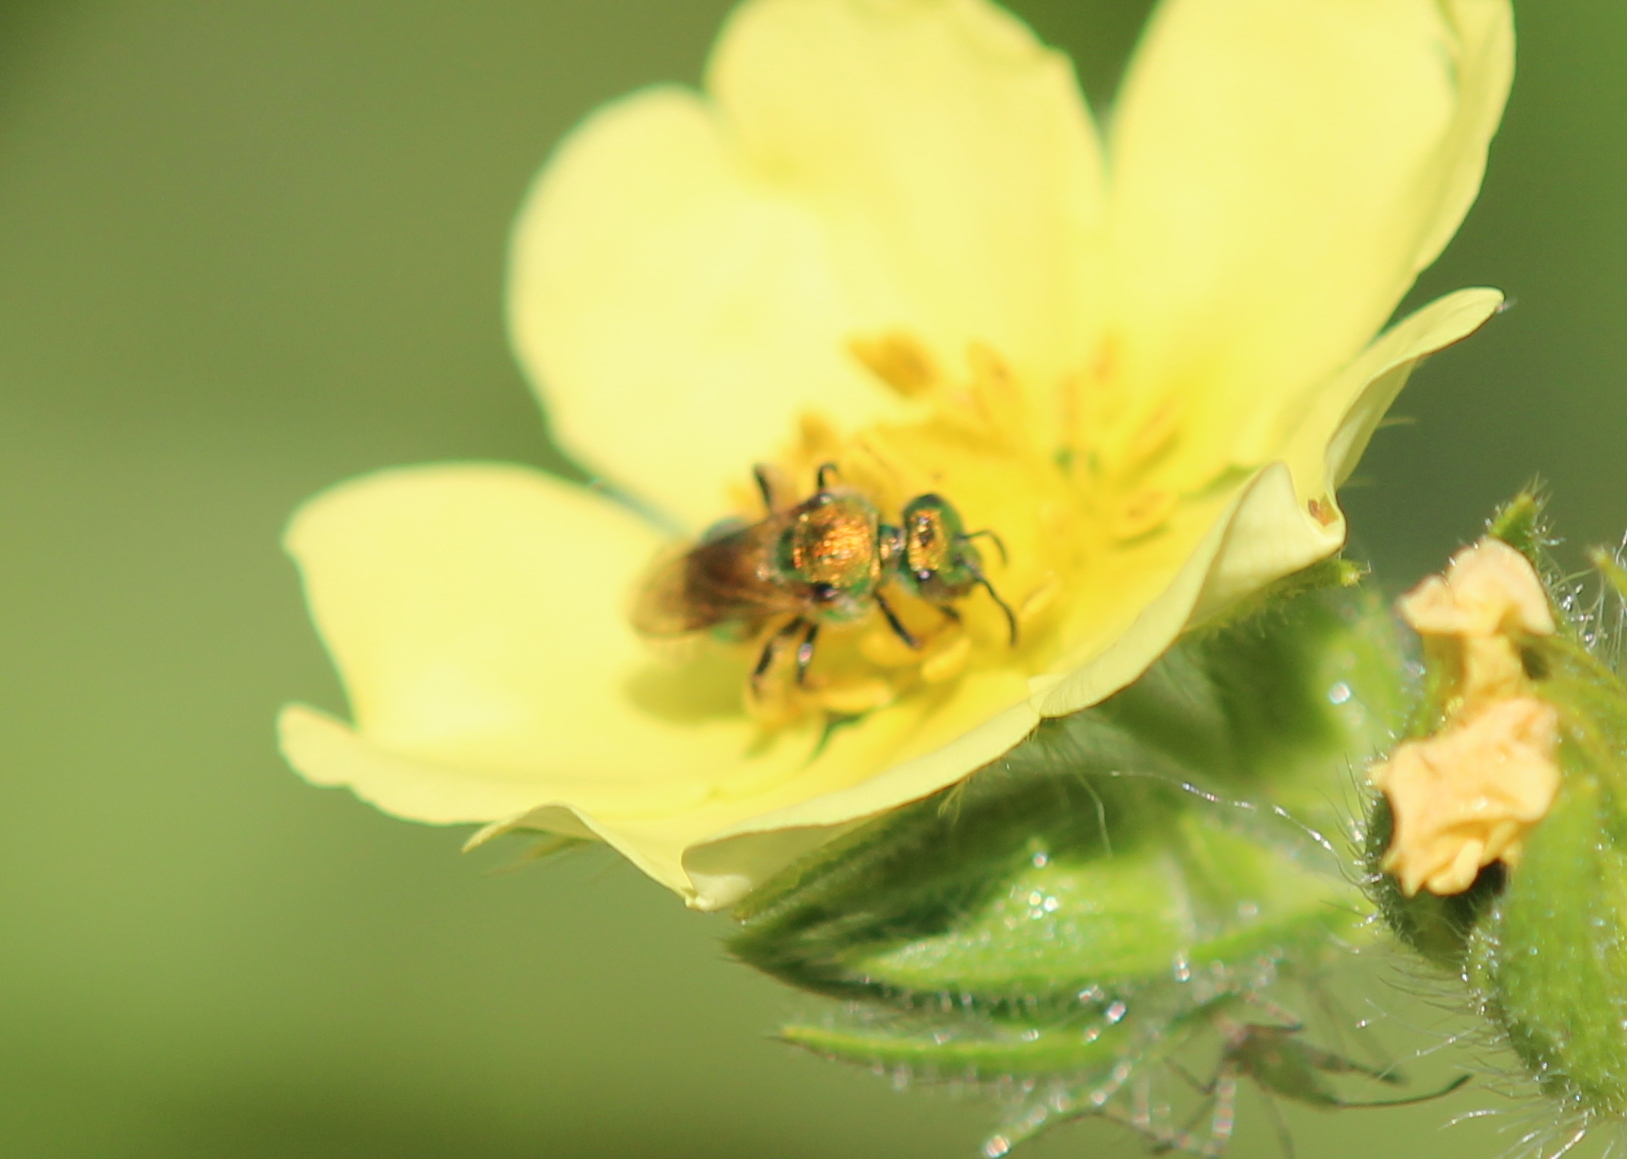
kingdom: Animalia
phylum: Arthropoda
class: Insecta
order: Hymenoptera
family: Halictidae
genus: Augochlorella
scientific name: Augochlorella aurata
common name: Golden sweat bee
